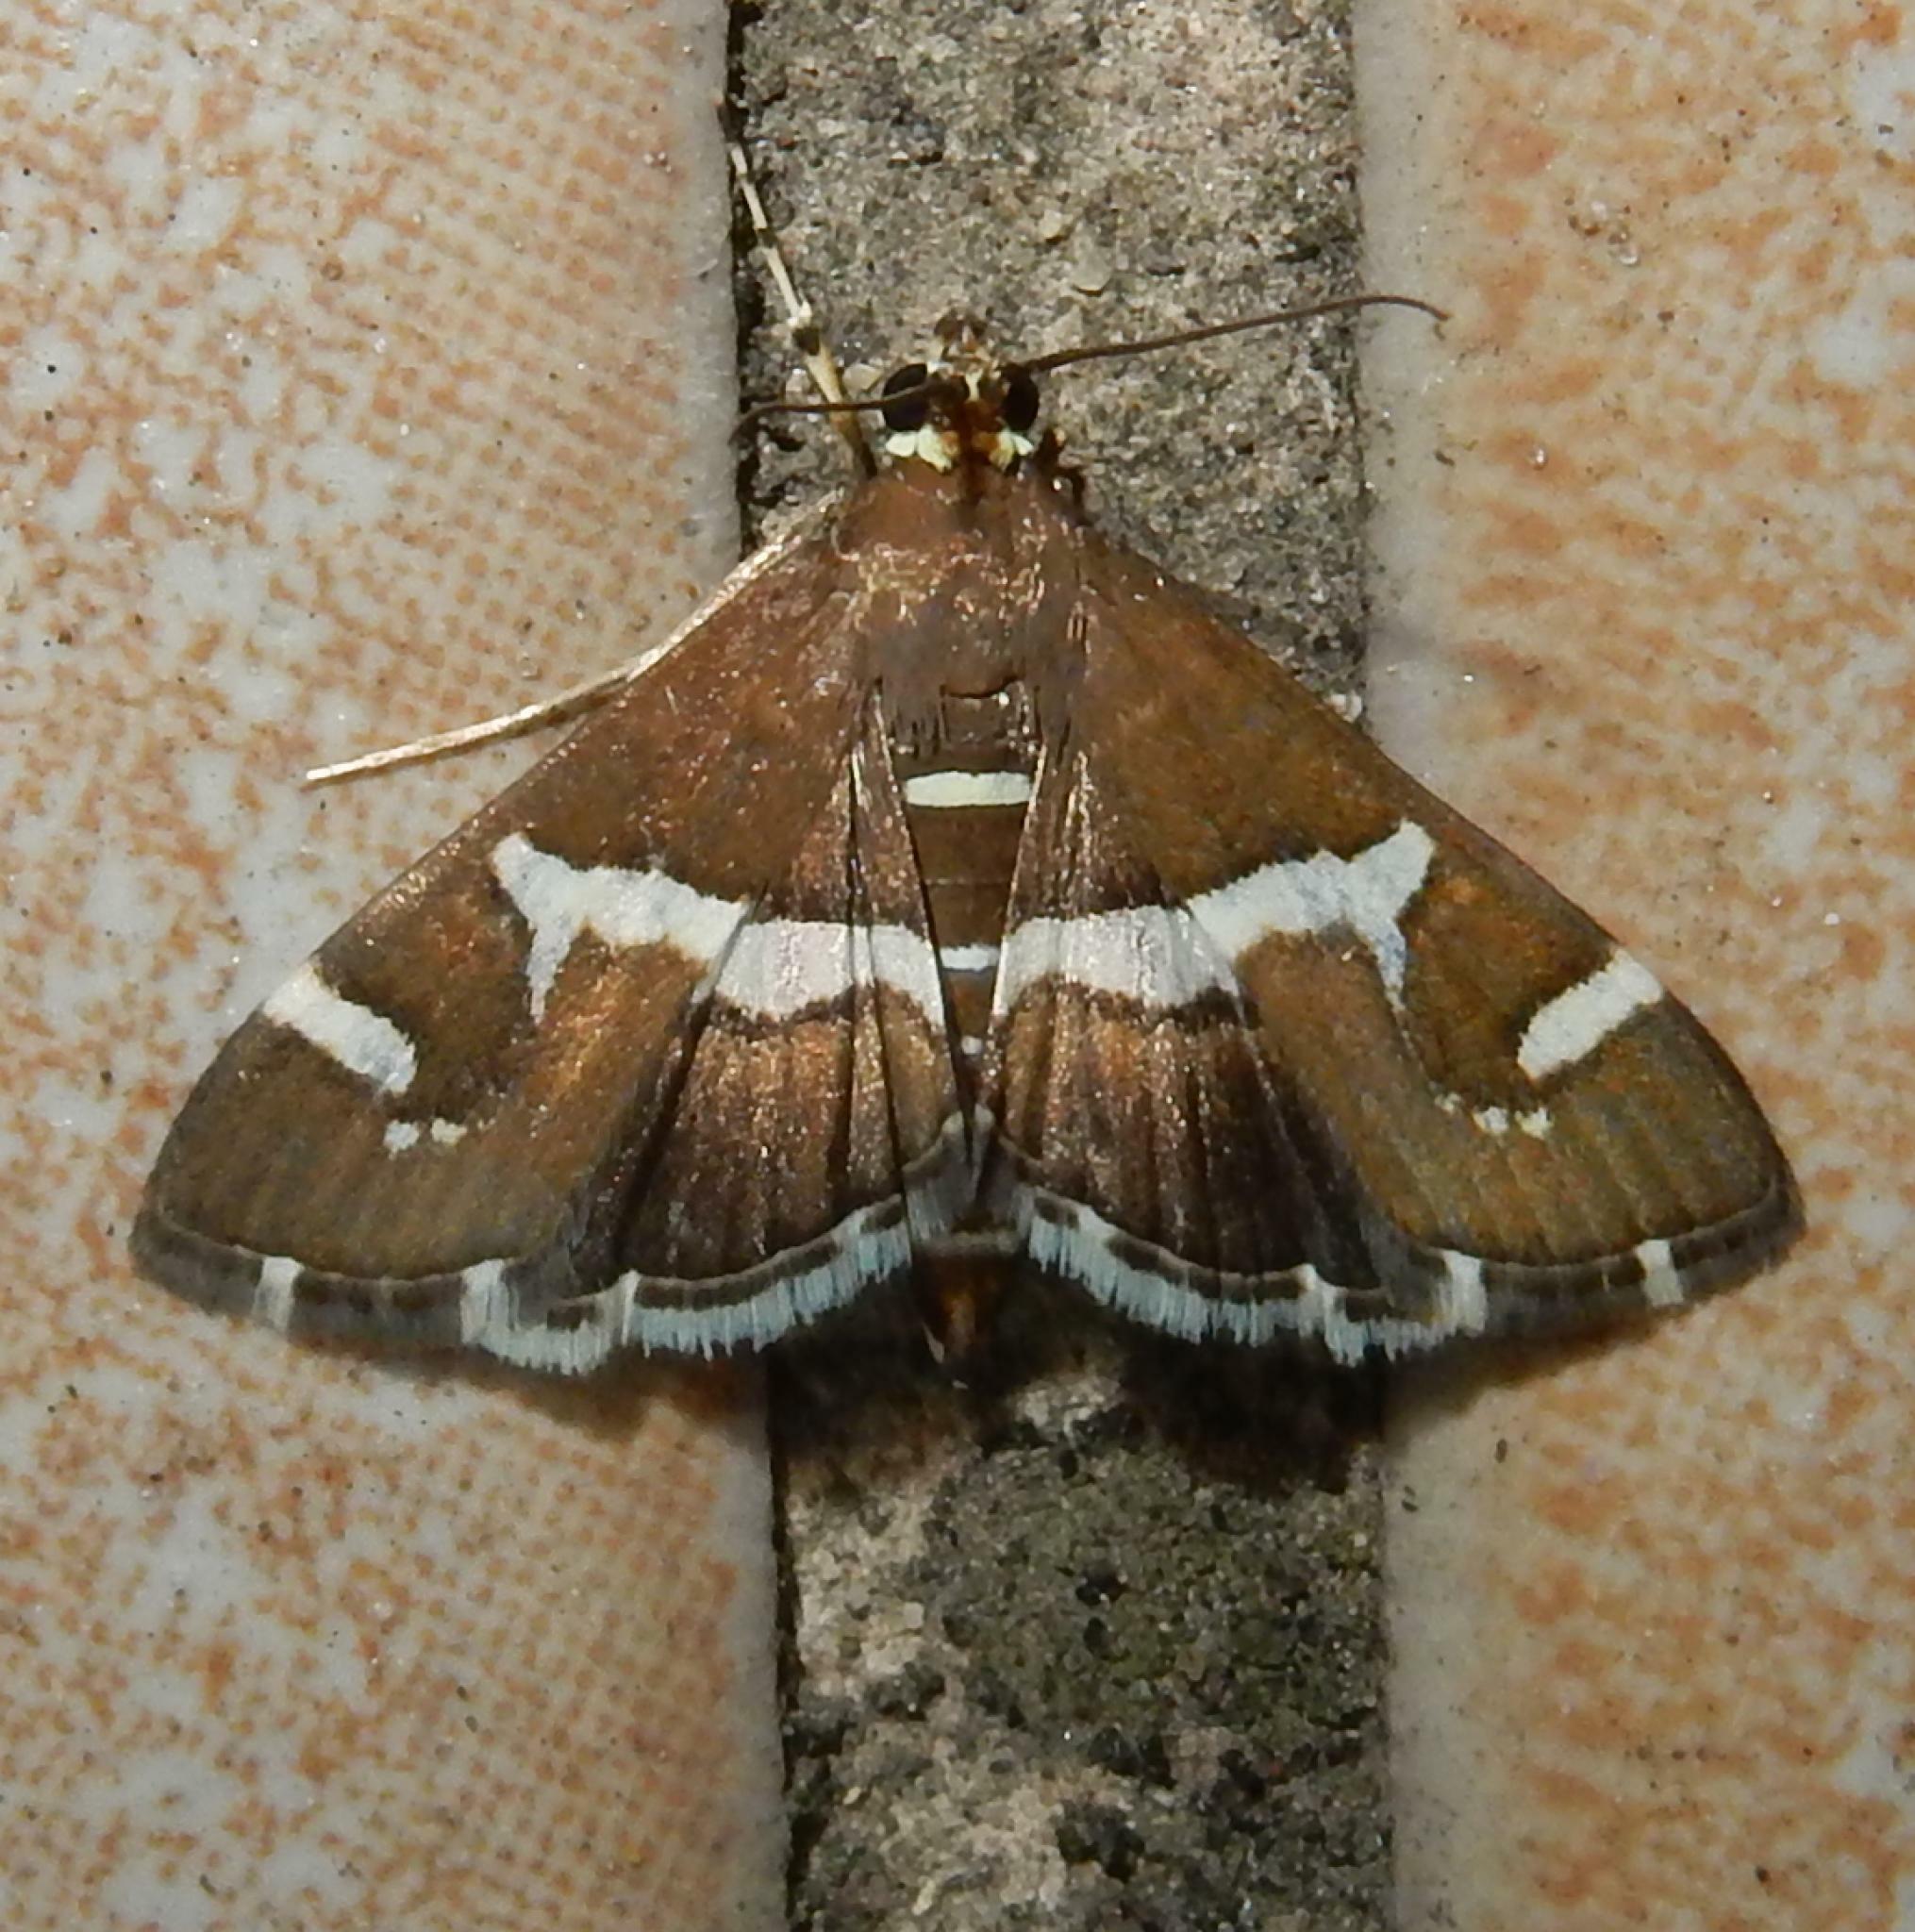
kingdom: Animalia
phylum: Arthropoda
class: Insecta
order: Lepidoptera
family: Crambidae
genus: Spoladea
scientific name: Spoladea recurvalis
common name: Beet webworm moth
